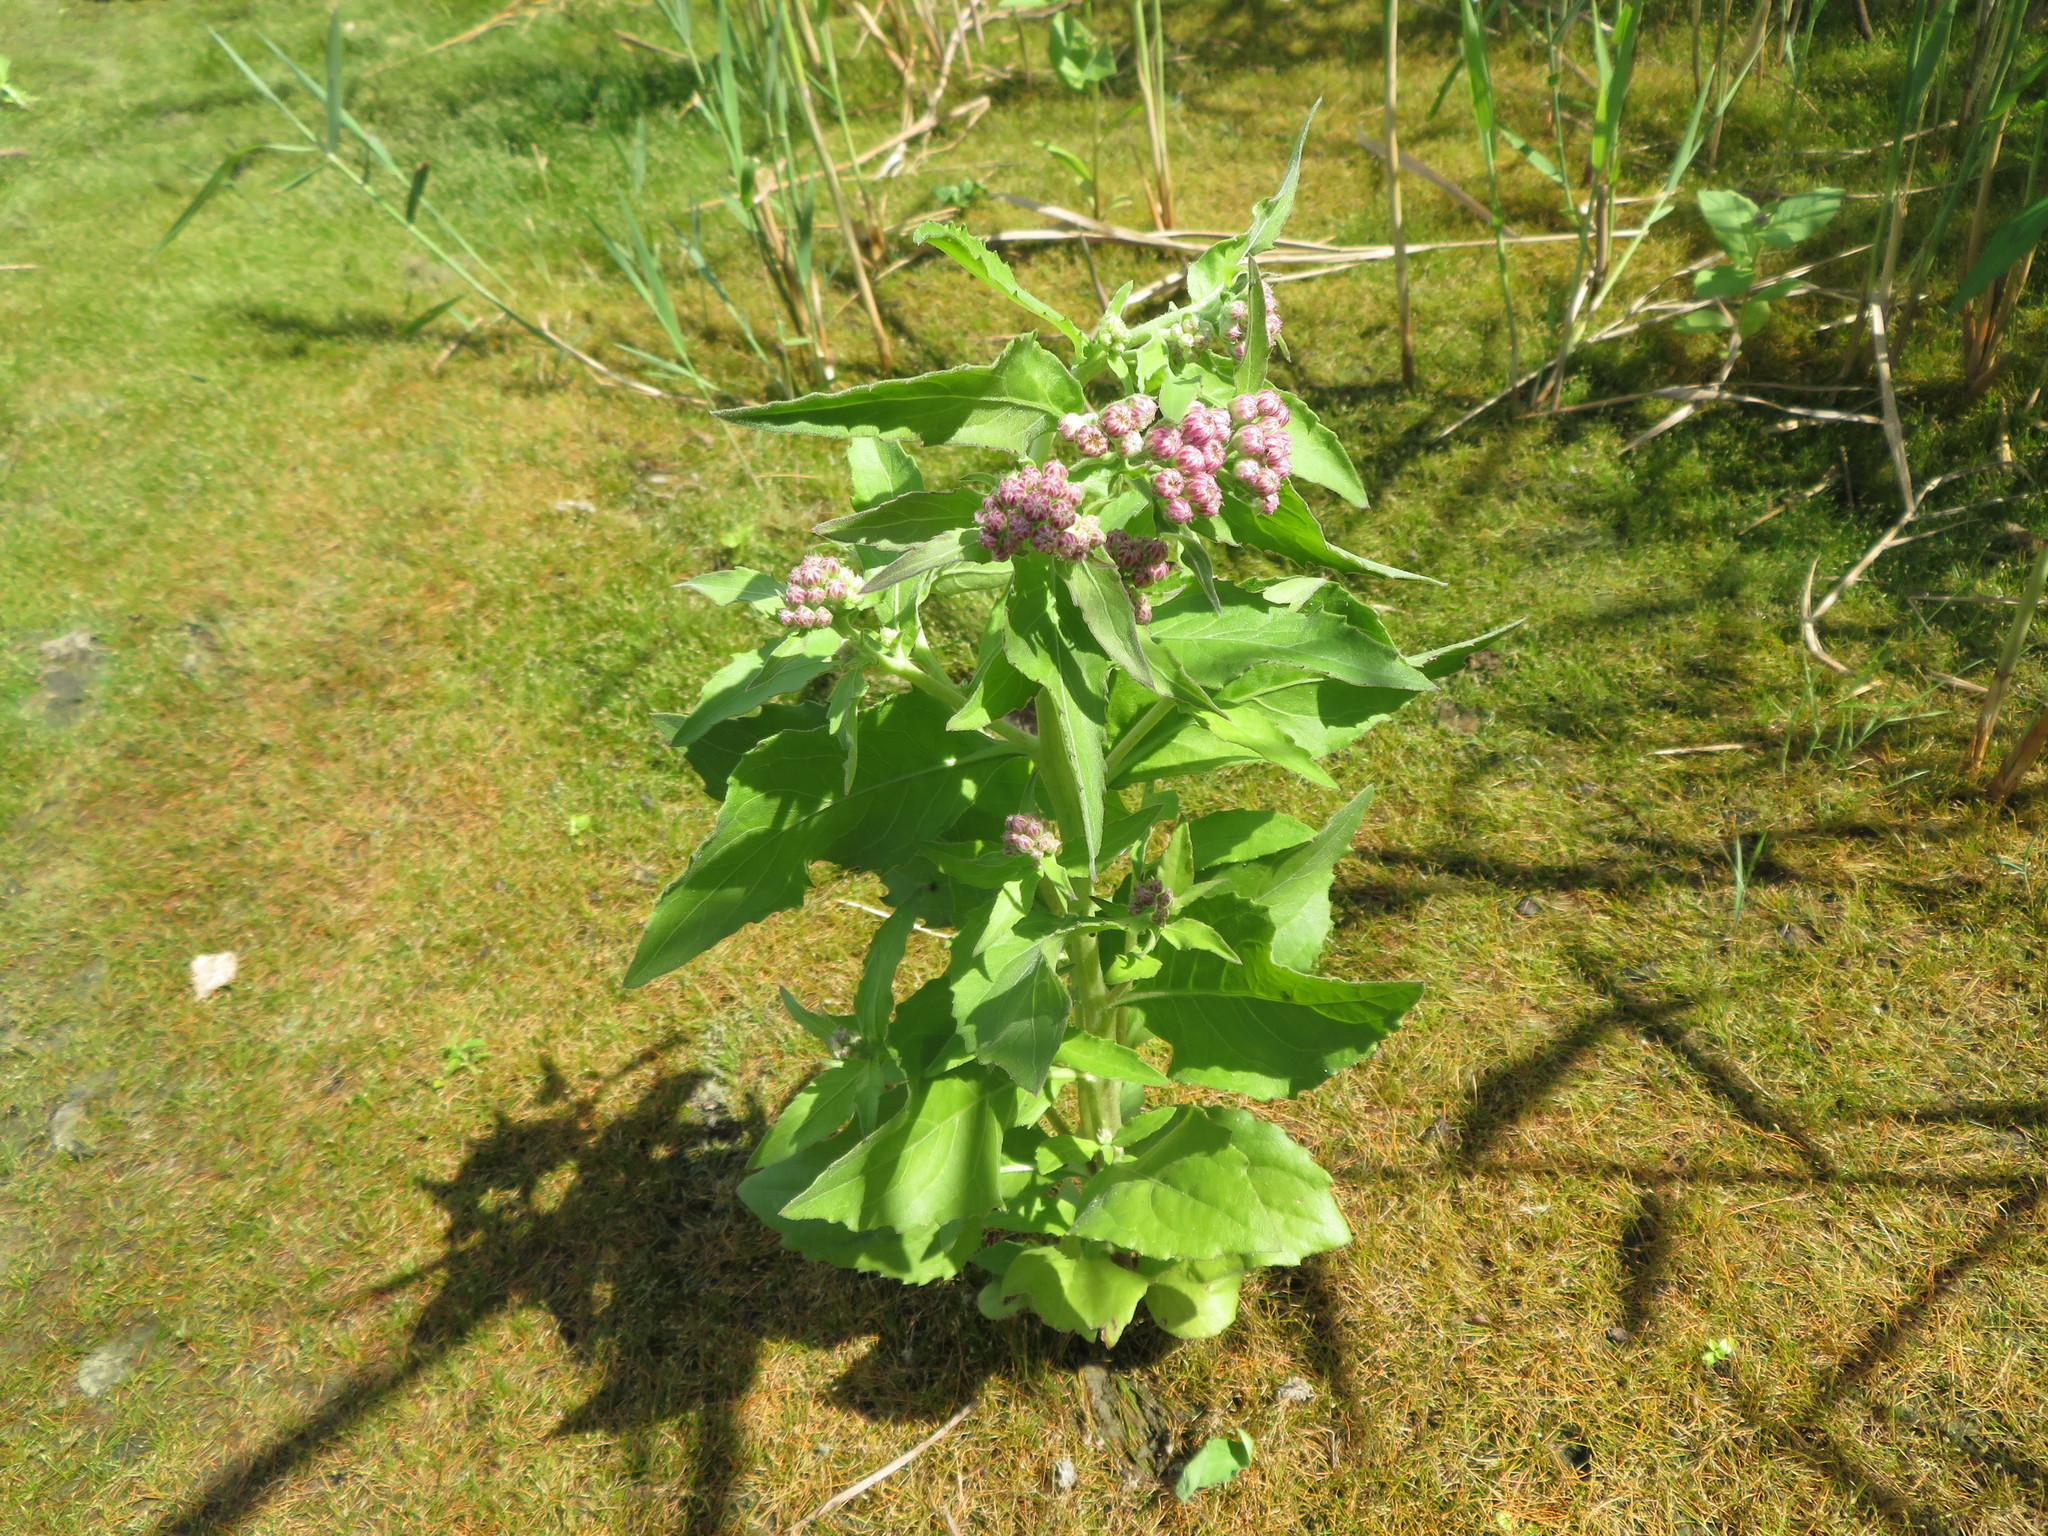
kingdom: Plantae
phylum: Tracheophyta
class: Magnoliopsida
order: Asterales
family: Asteraceae
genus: Pluchea
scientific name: Pluchea odorata
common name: Saltmarsh fleabane
